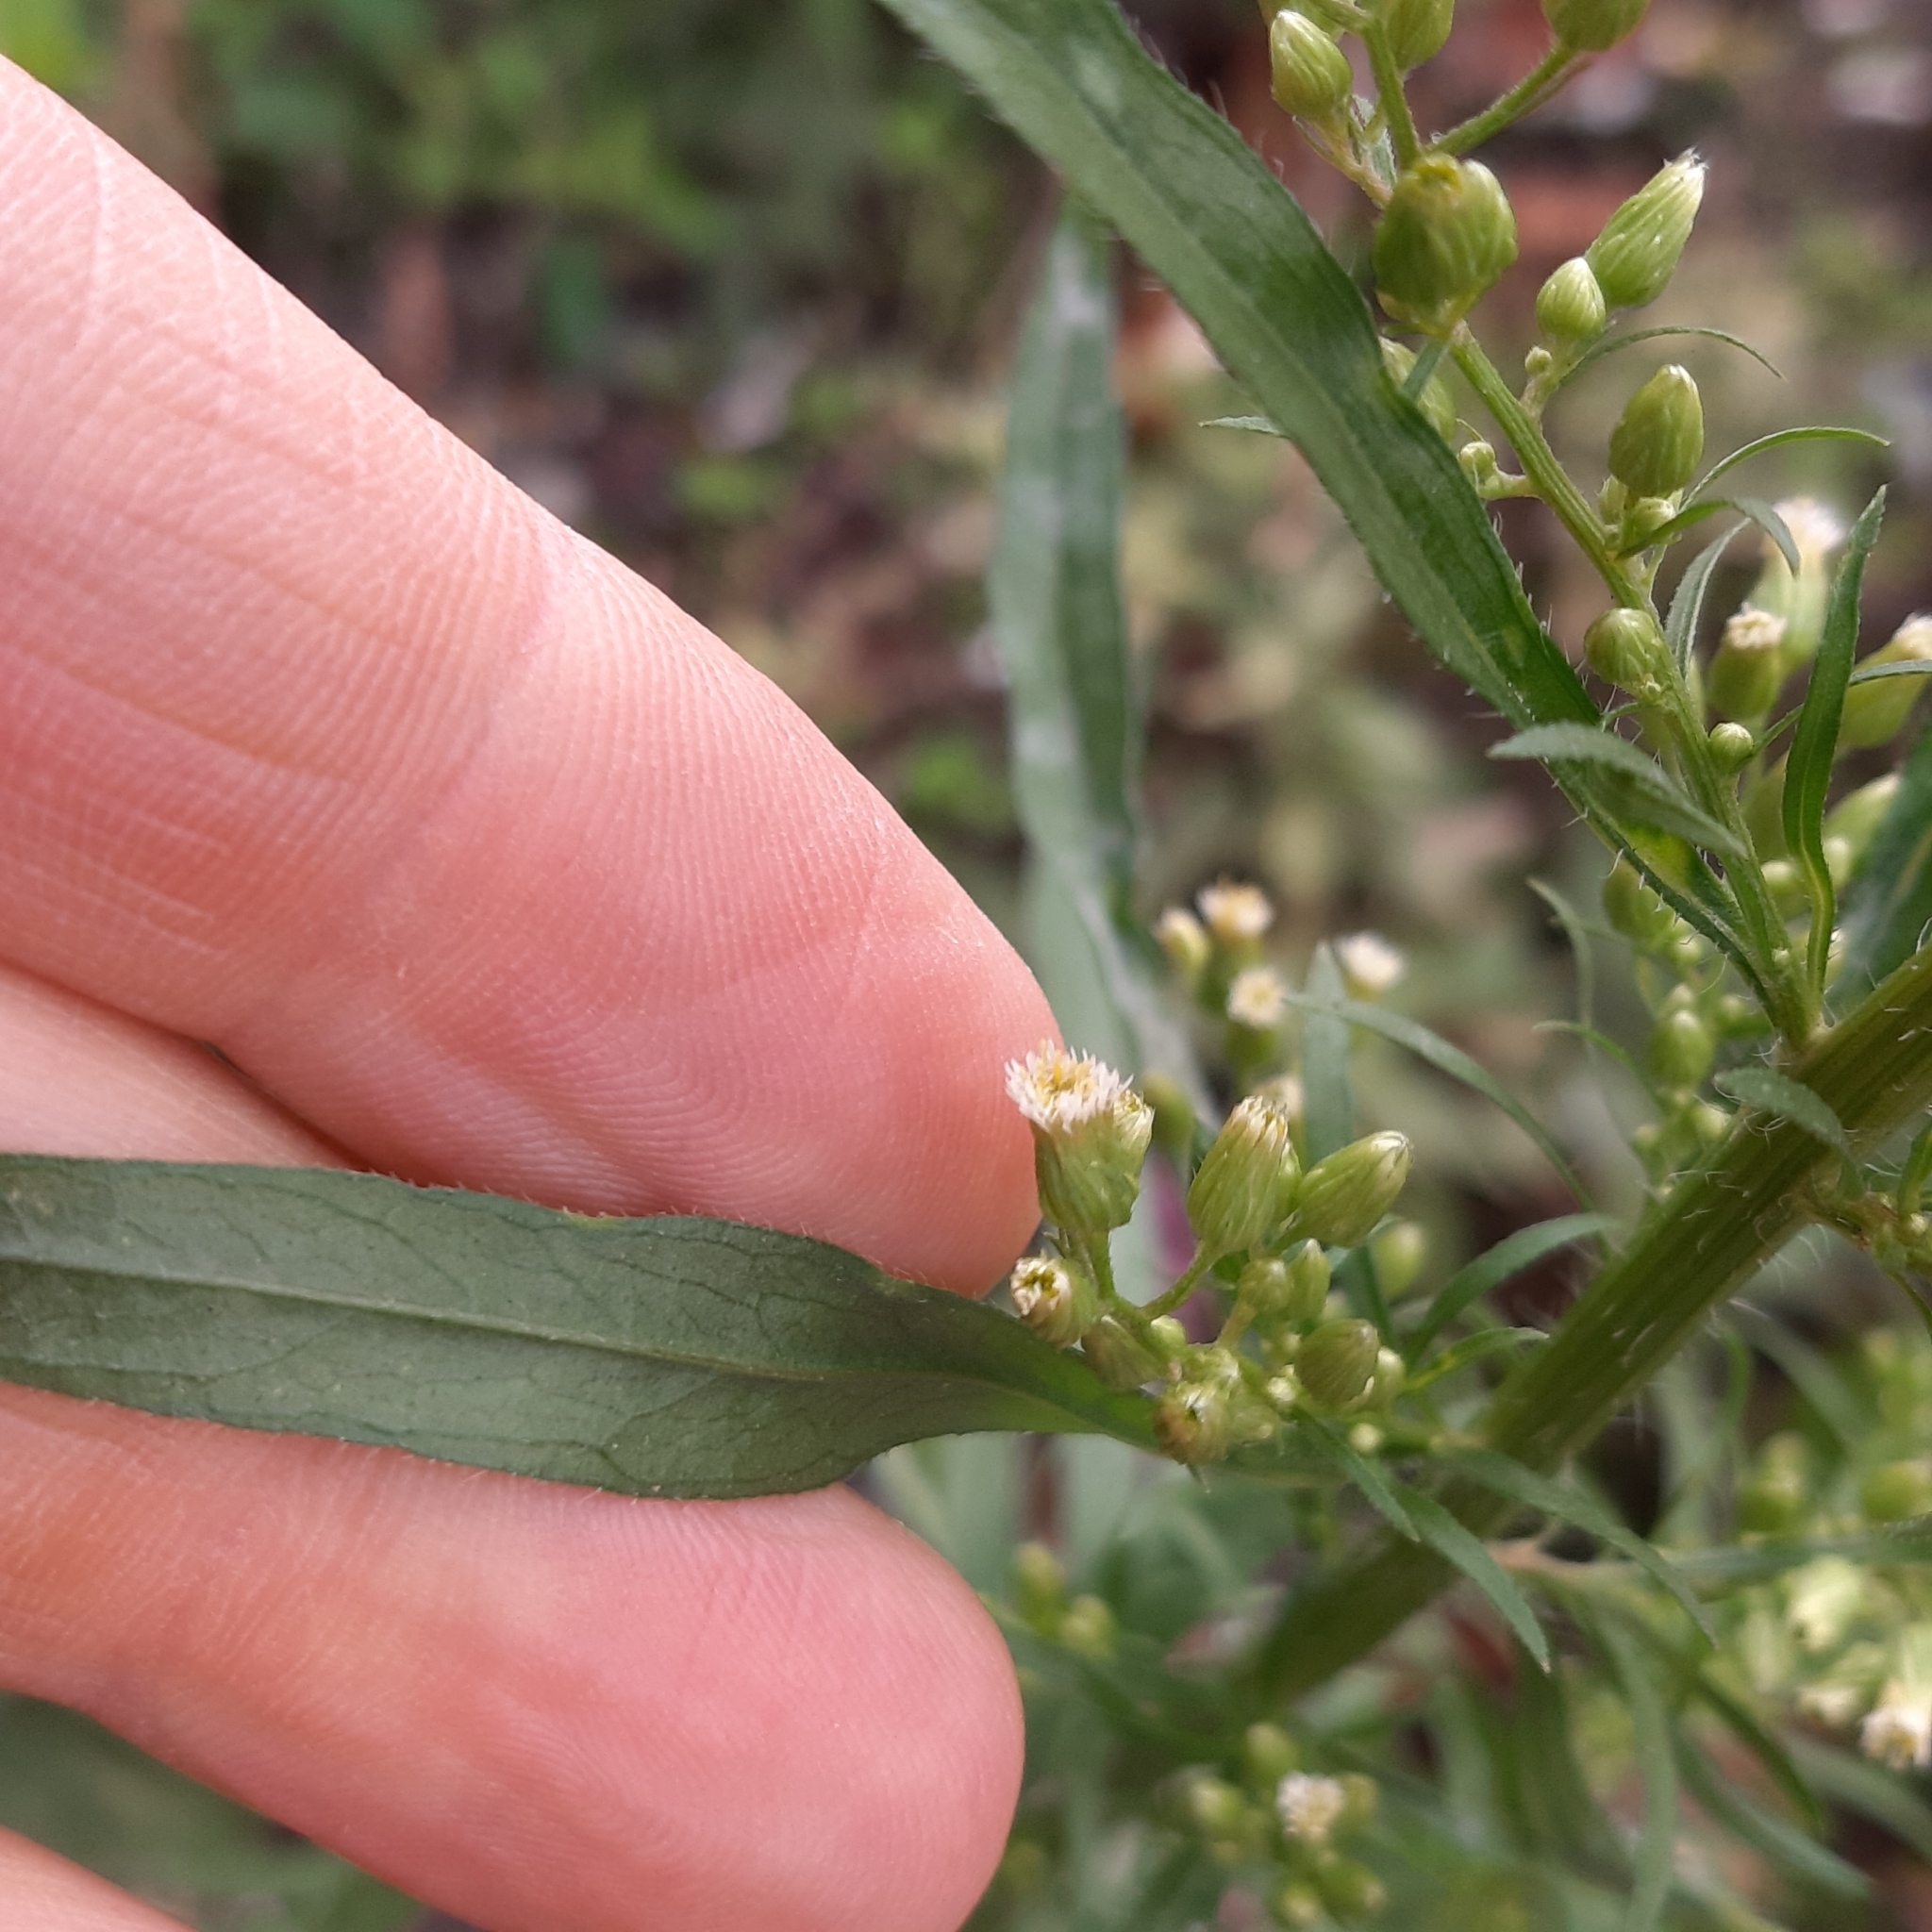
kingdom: Plantae
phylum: Tracheophyta
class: Magnoliopsida
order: Asterales
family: Asteraceae
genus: Erigeron
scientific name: Erigeron canadensis
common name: Canadian fleabane
